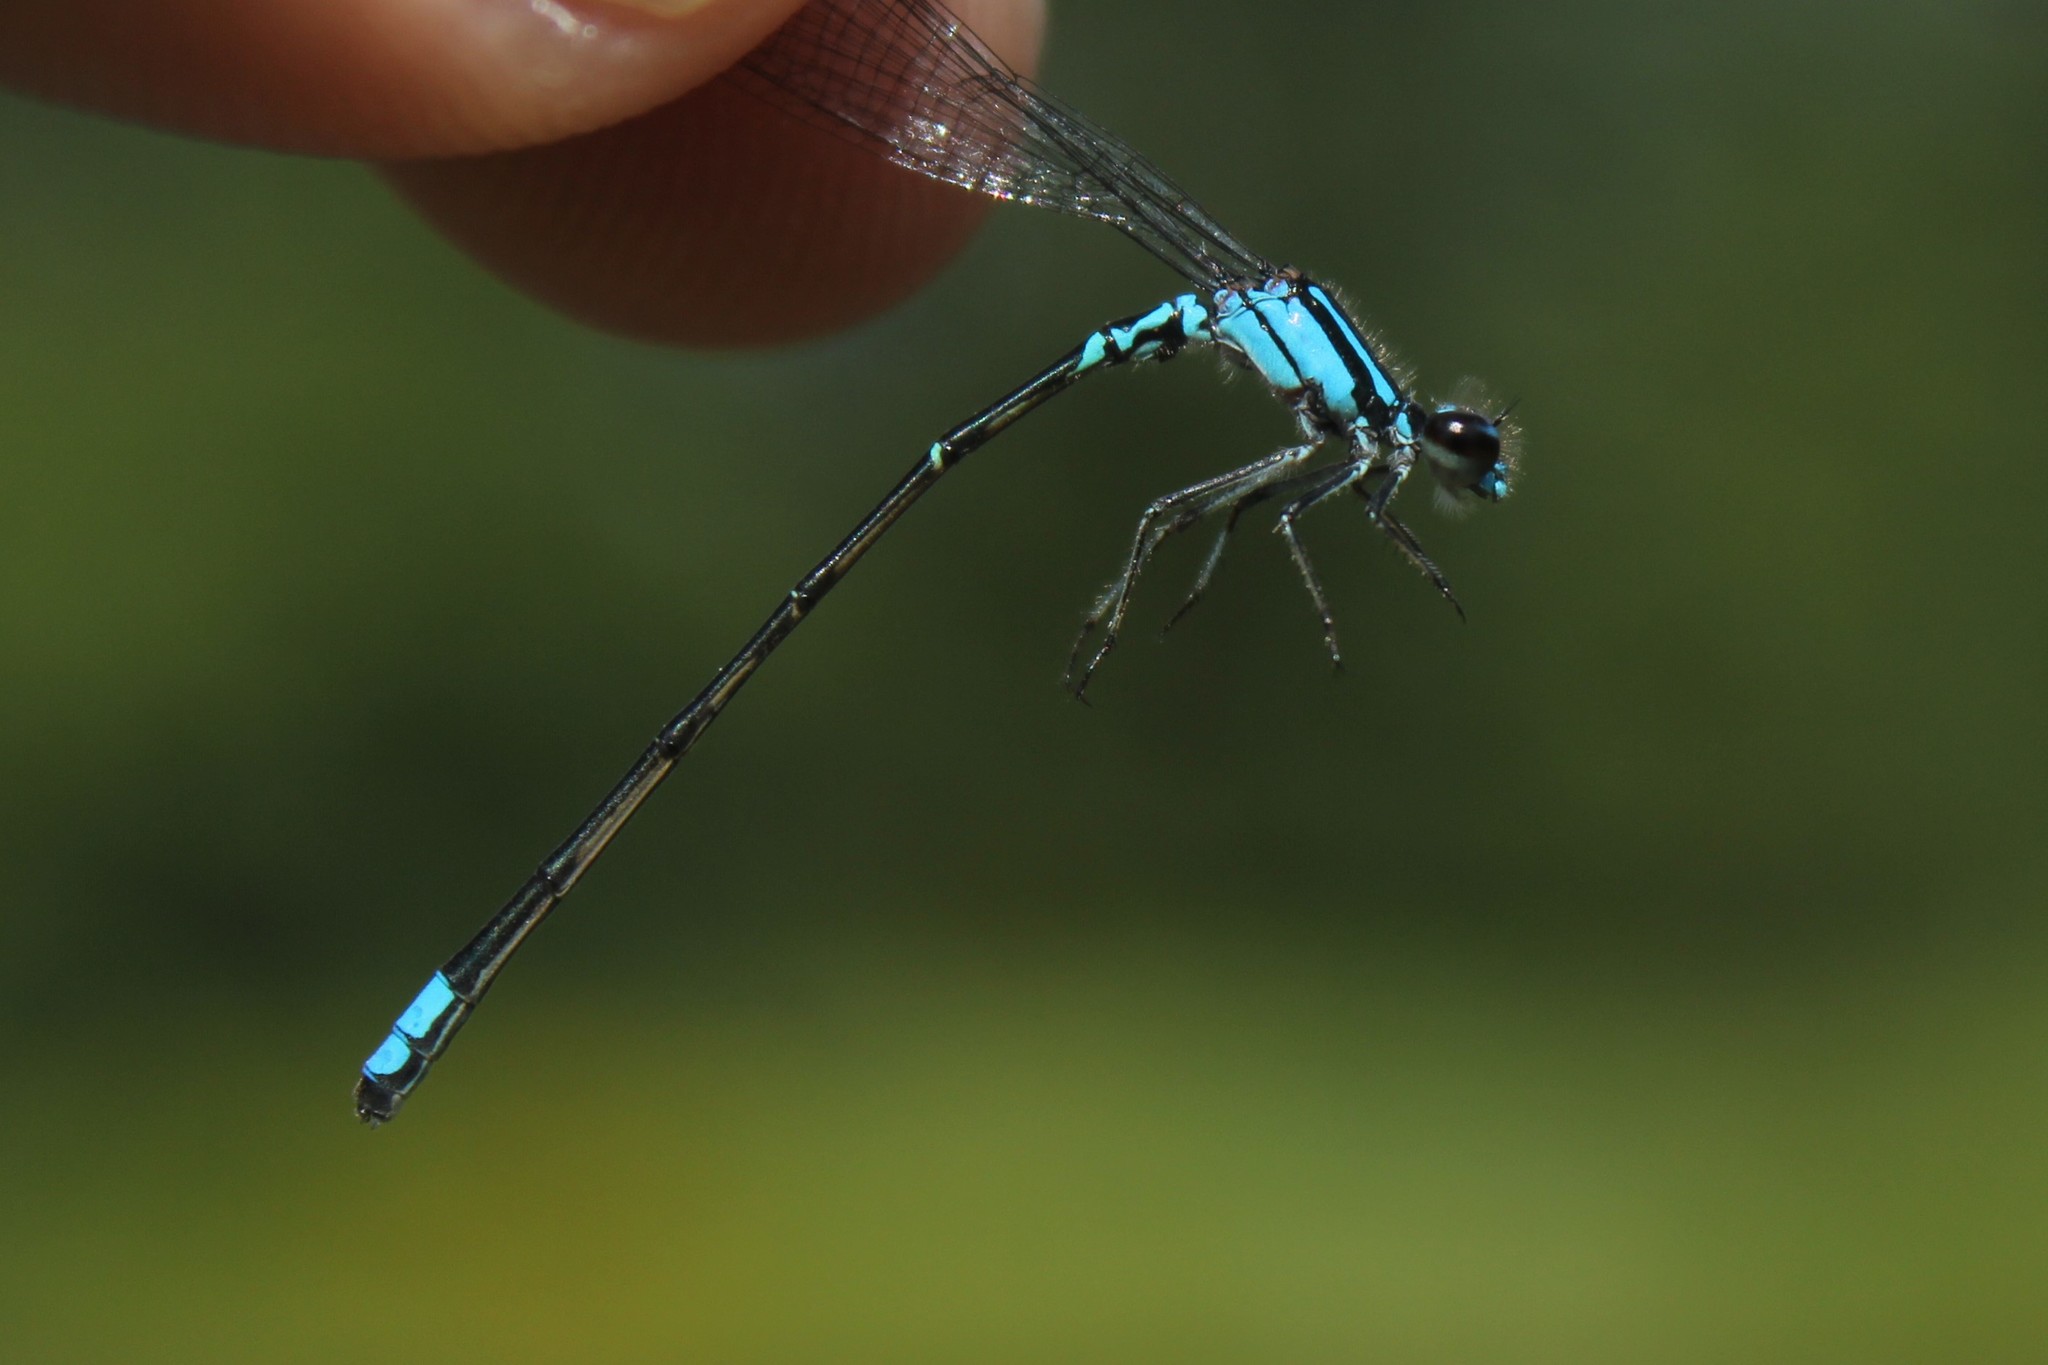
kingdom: Animalia
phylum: Arthropoda
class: Insecta
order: Odonata
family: Coenagrionidae
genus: Enallagma
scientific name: Enallagma geminatum
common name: Skimming bluet
